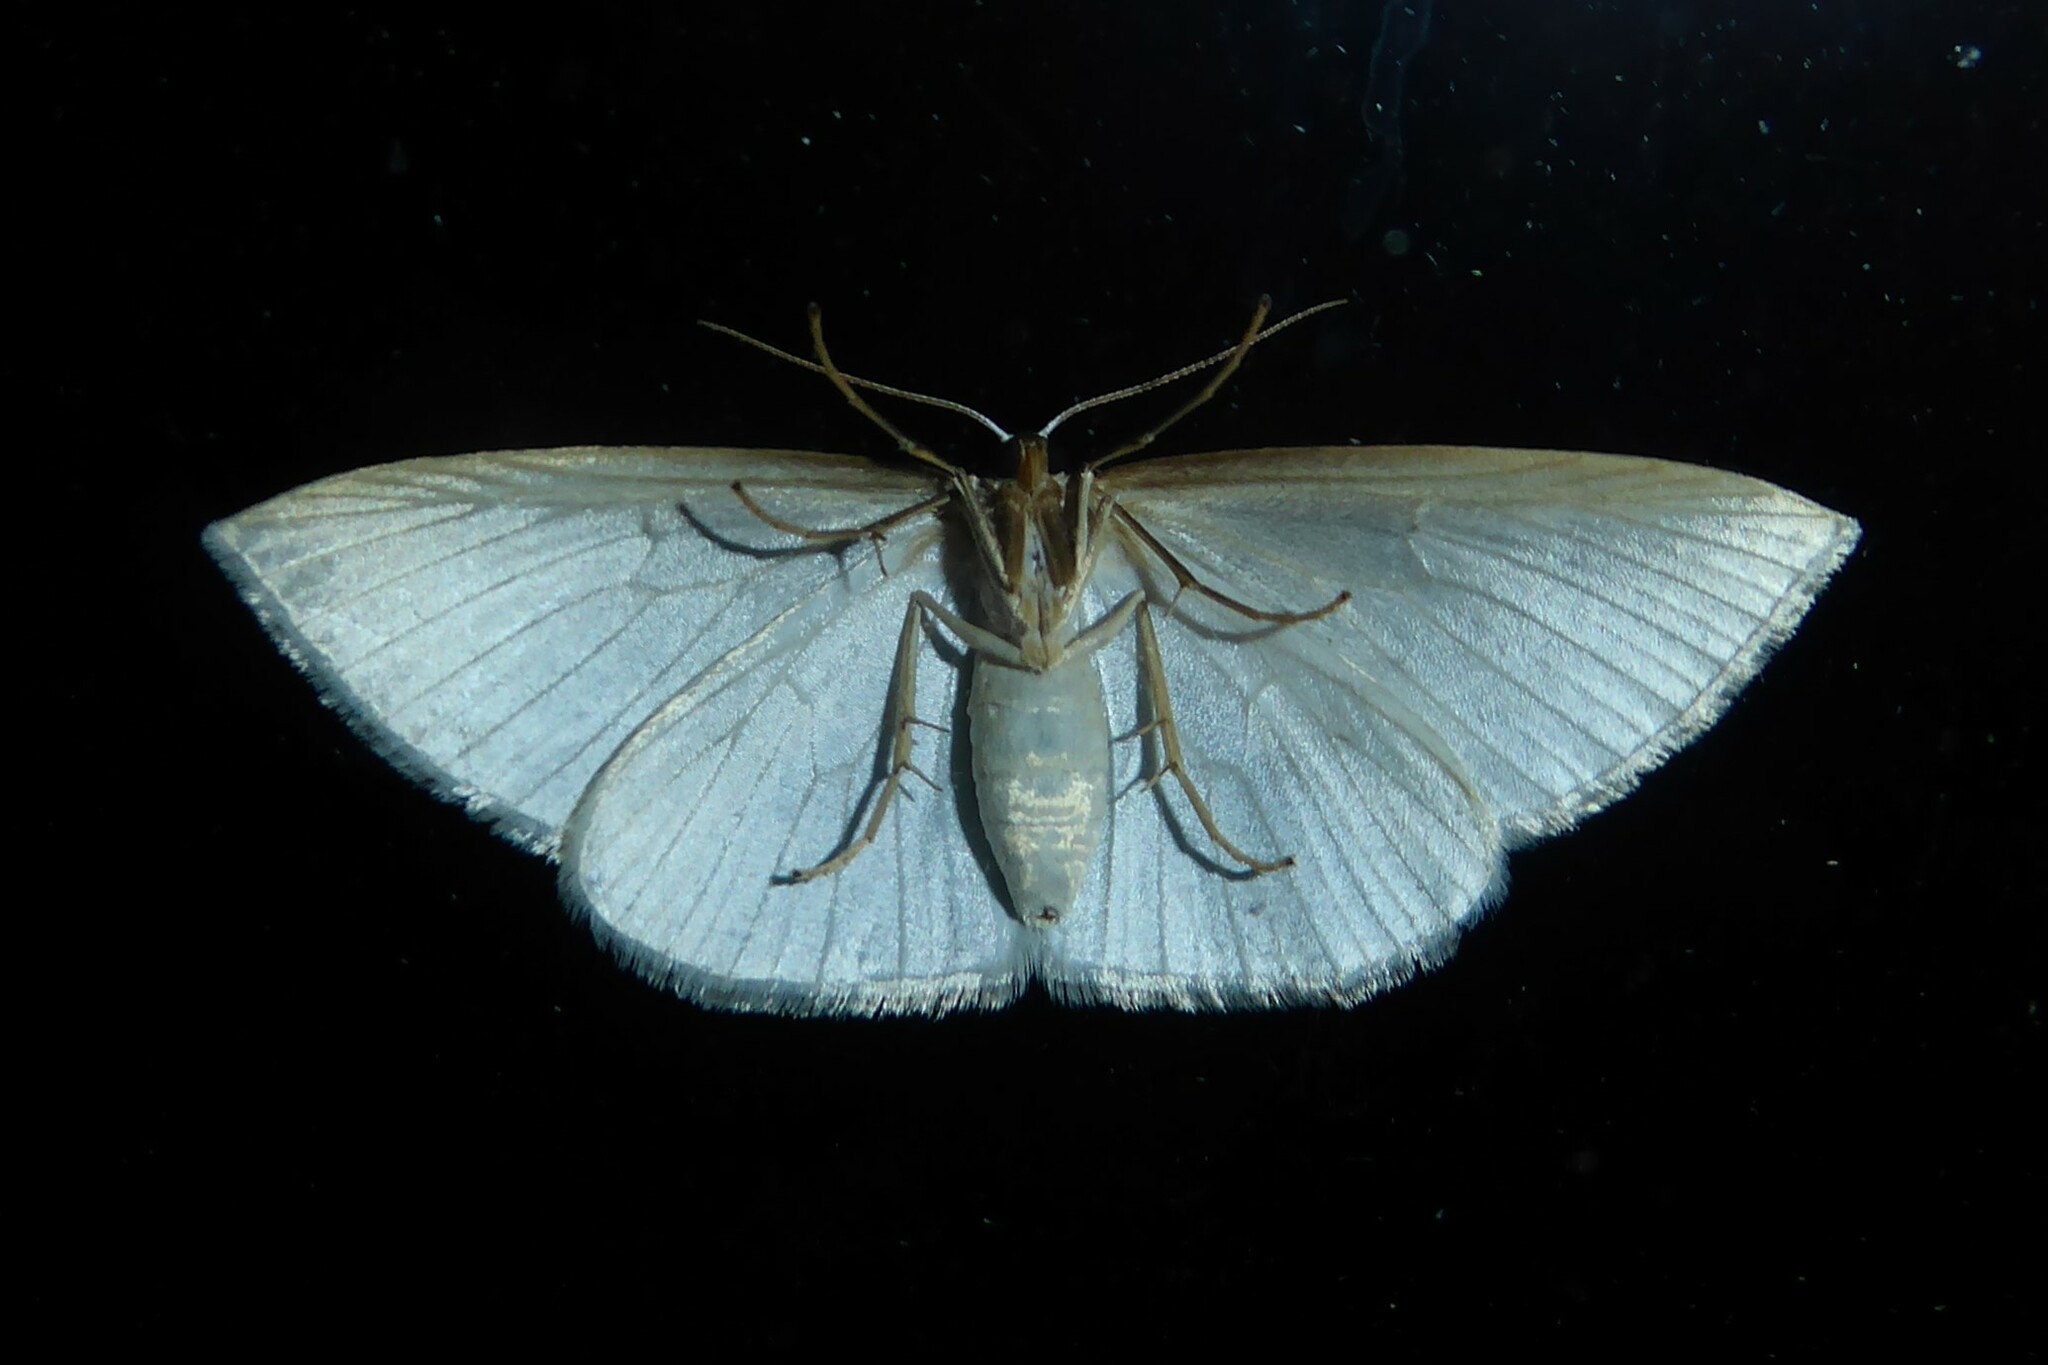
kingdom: Animalia
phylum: Arthropoda
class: Insecta
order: Lepidoptera
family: Geometridae
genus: Orthoclydon
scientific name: Orthoclydon praefectata
